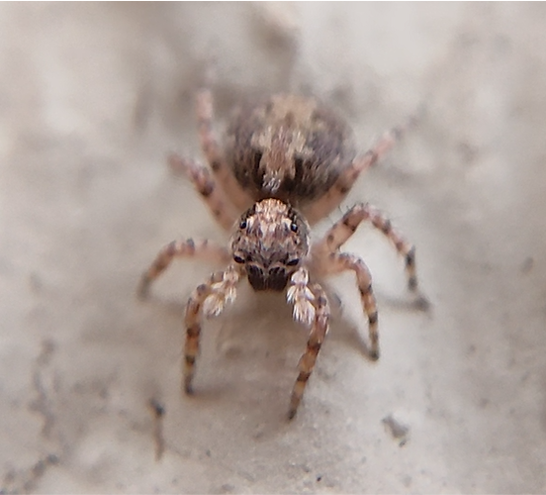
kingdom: Animalia
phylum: Arthropoda
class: Arachnida
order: Araneae
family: Salticidae
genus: Marma
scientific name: Marma nigritarsis
